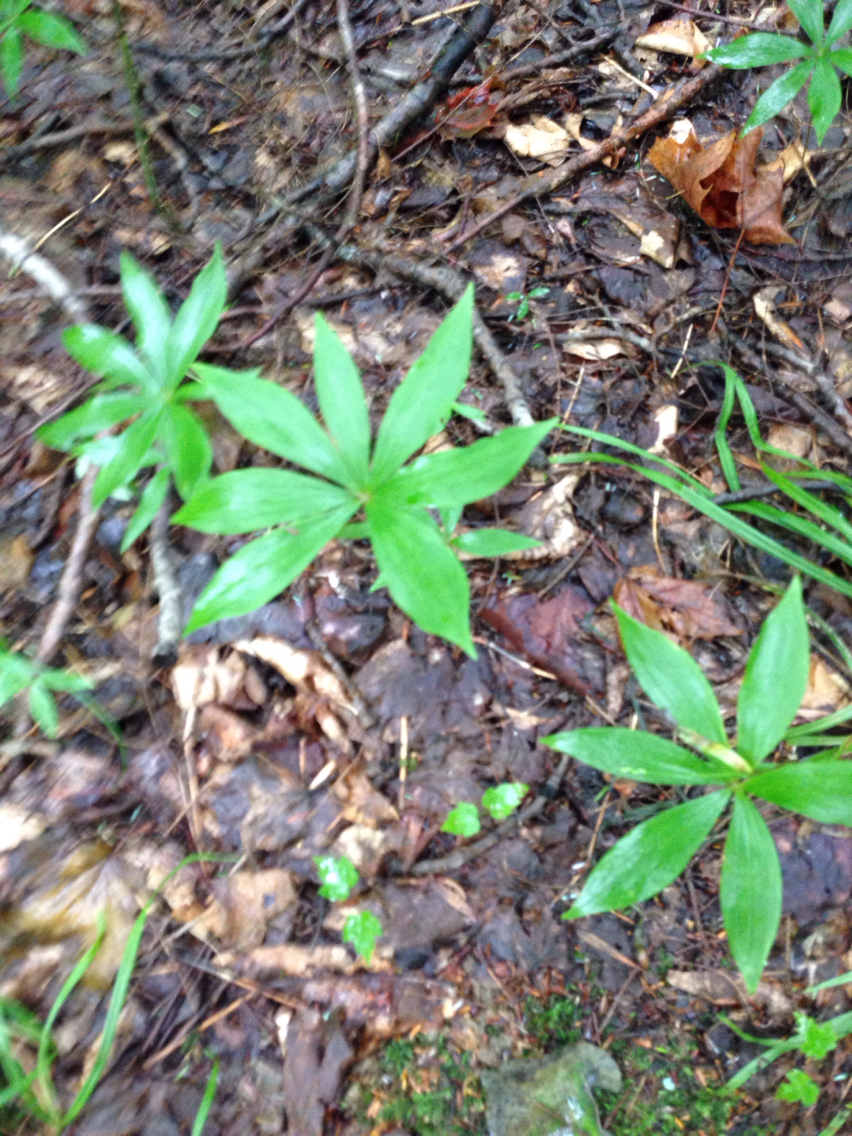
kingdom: Plantae
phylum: Tracheophyta
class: Magnoliopsida
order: Ericales
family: Primulaceae
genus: Lysimachia
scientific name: Lysimachia borealis
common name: American starflower
